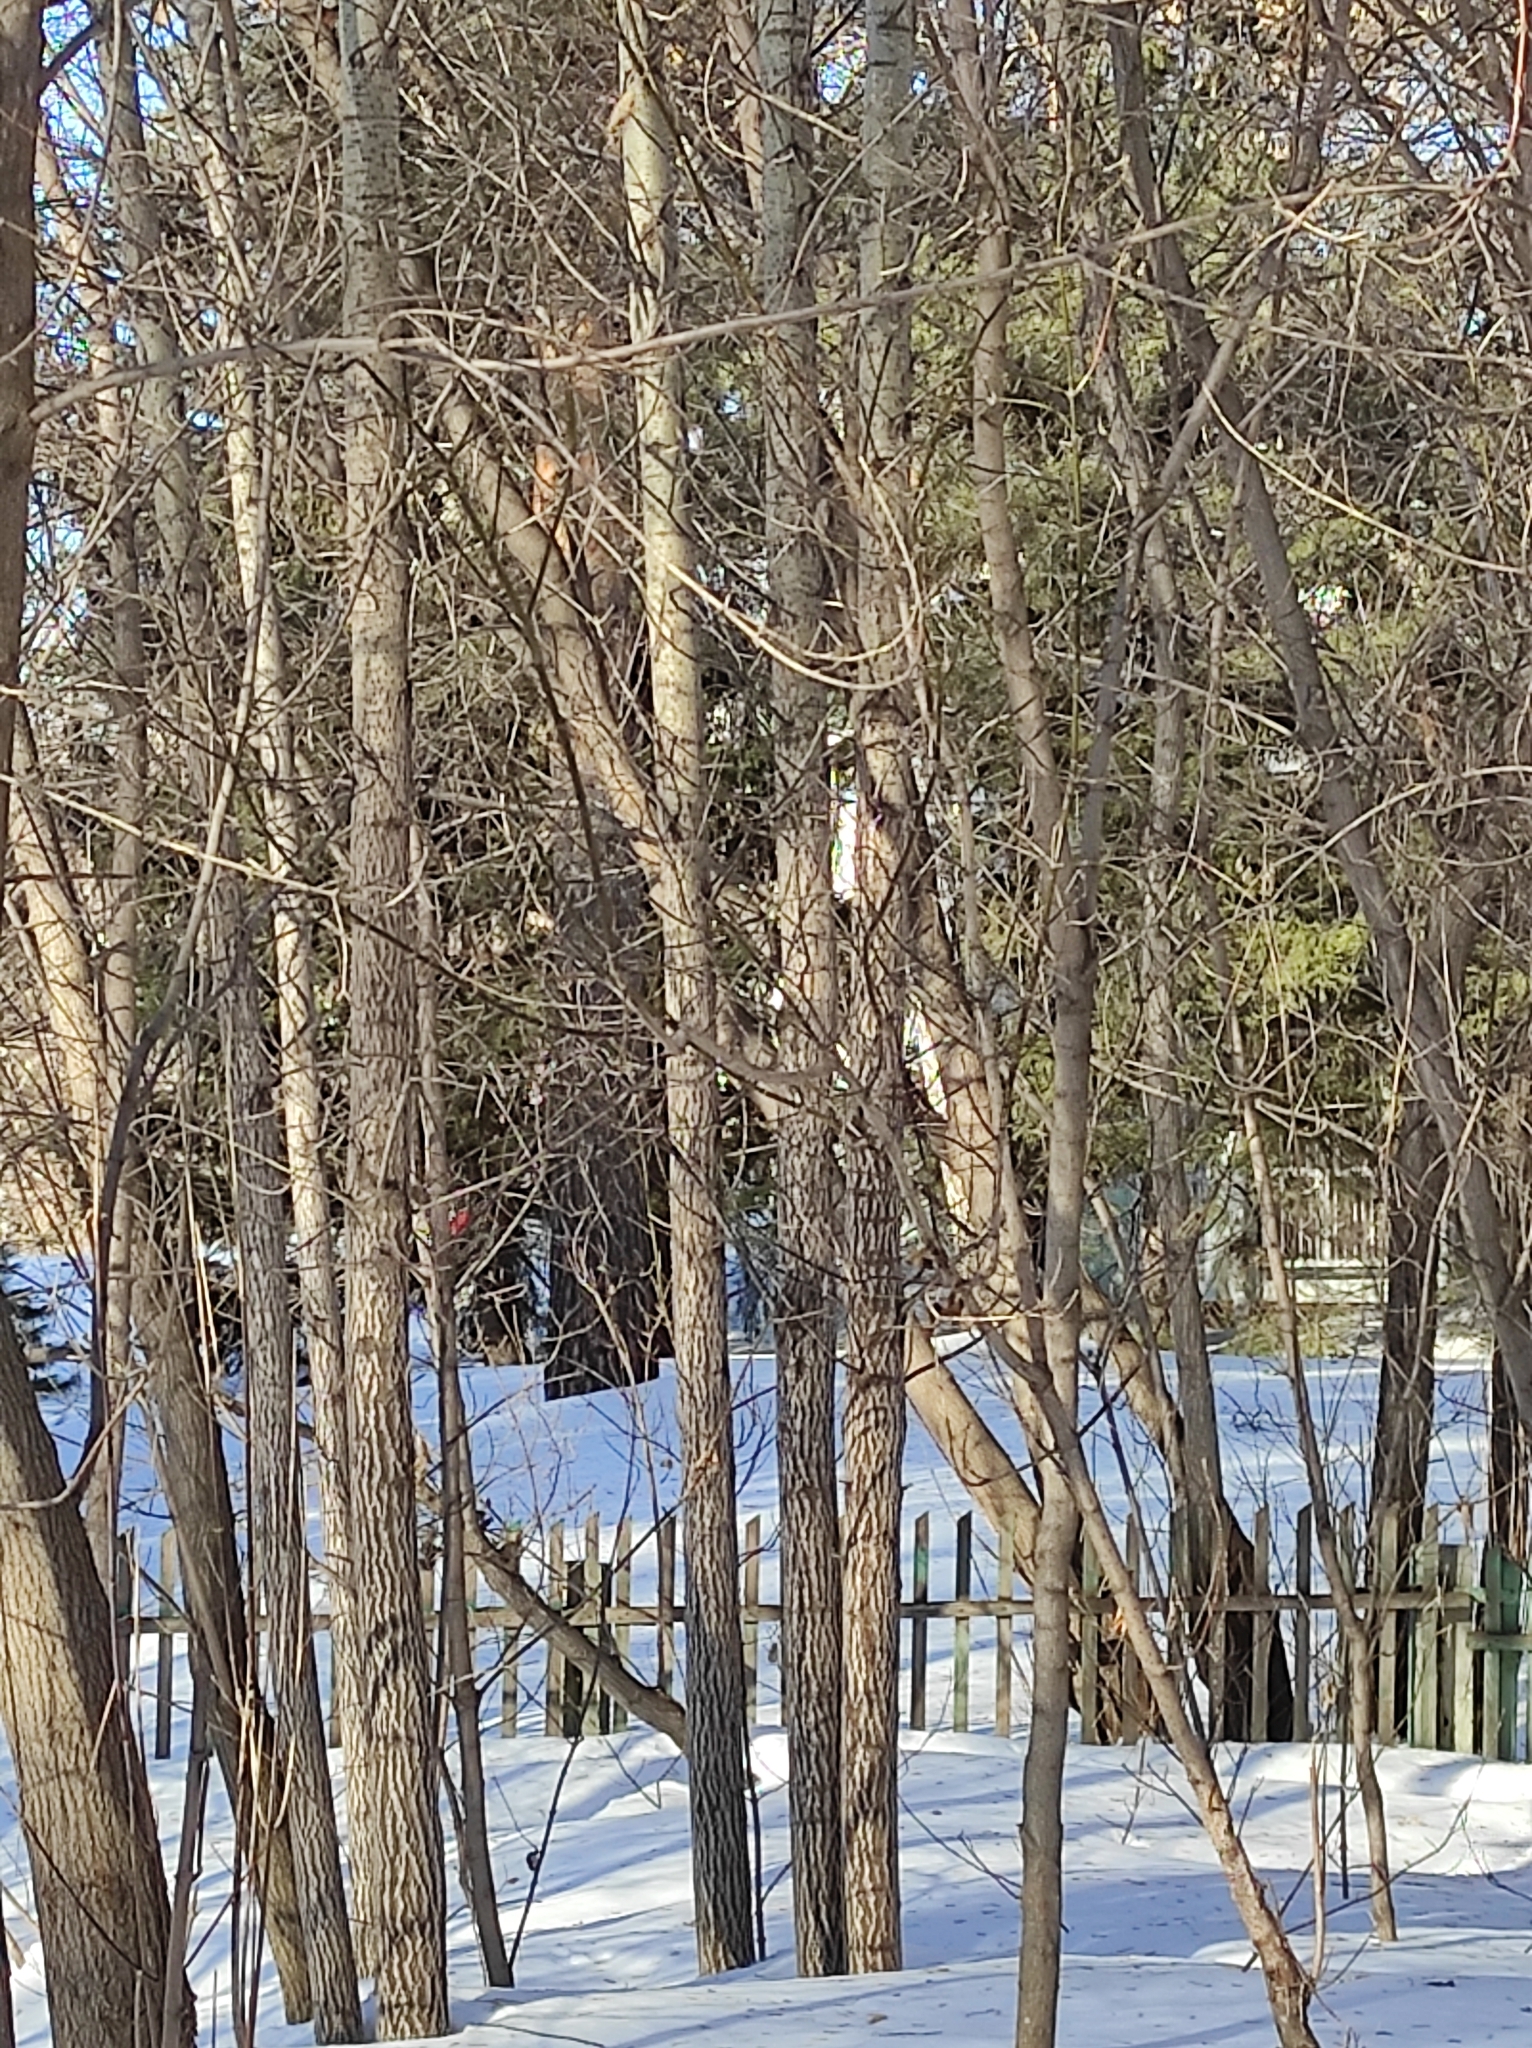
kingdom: Animalia
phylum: Chordata
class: Aves
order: Piciformes
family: Picidae
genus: Dendrocopos
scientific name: Dendrocopos major
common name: Great spotted woodpecker
